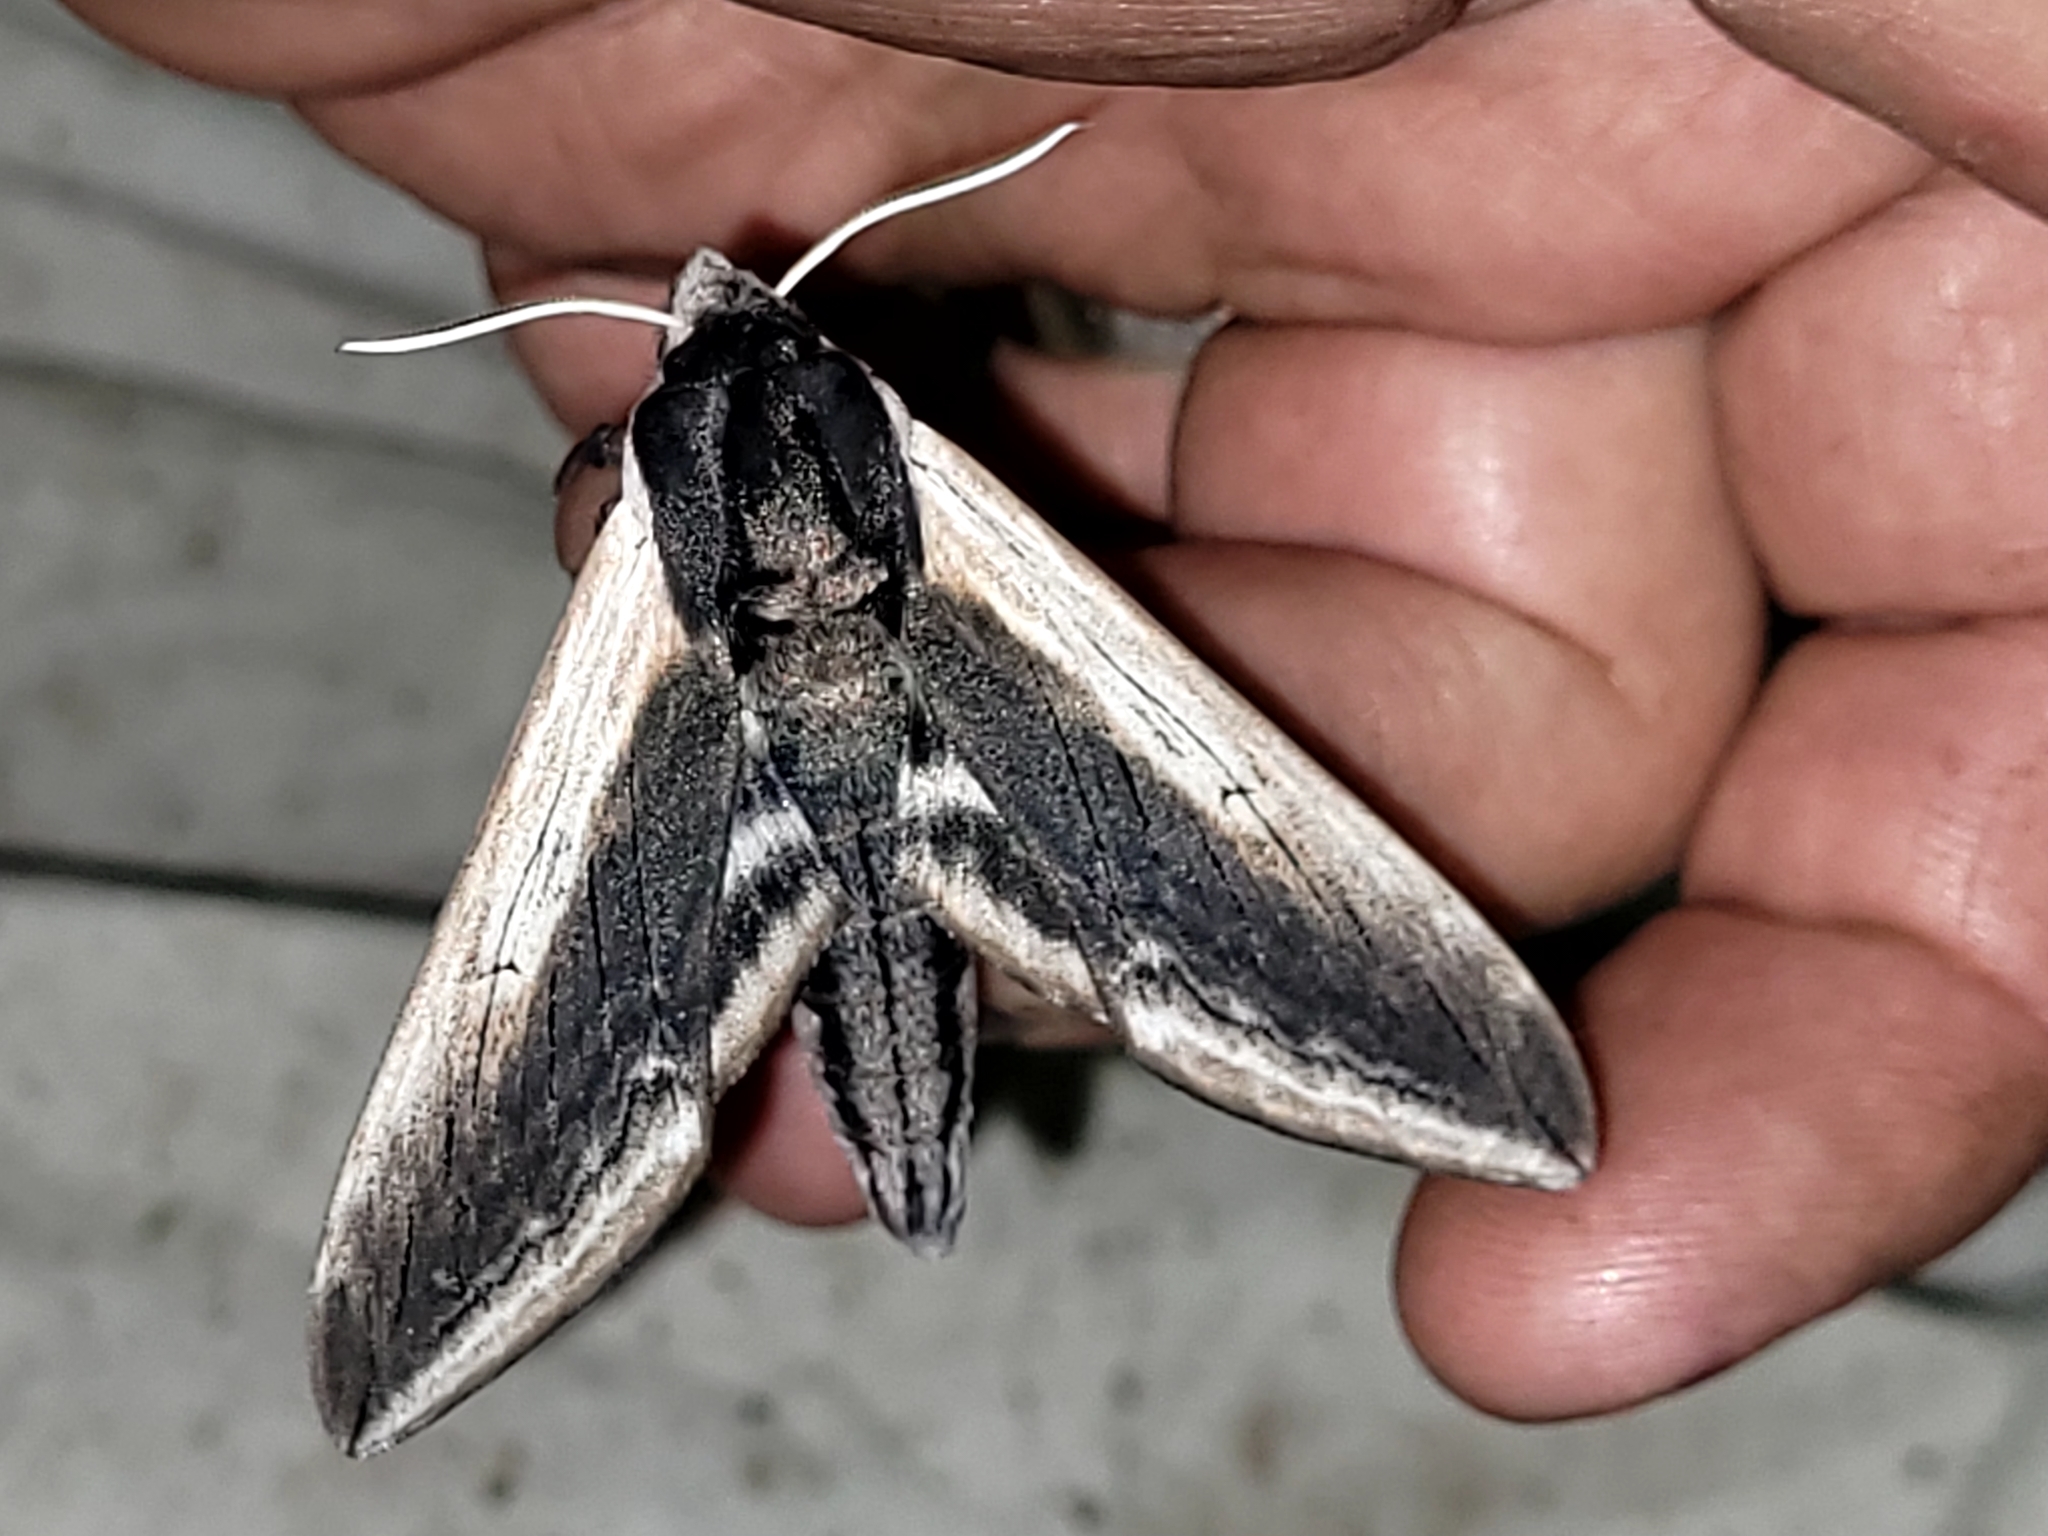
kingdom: Animalia
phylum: Arthropoda
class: Insecta
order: Lepidoptera
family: Sphingidae
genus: Sphinx
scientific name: Sphinx drupiferarum
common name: Wild cherry sphinx
